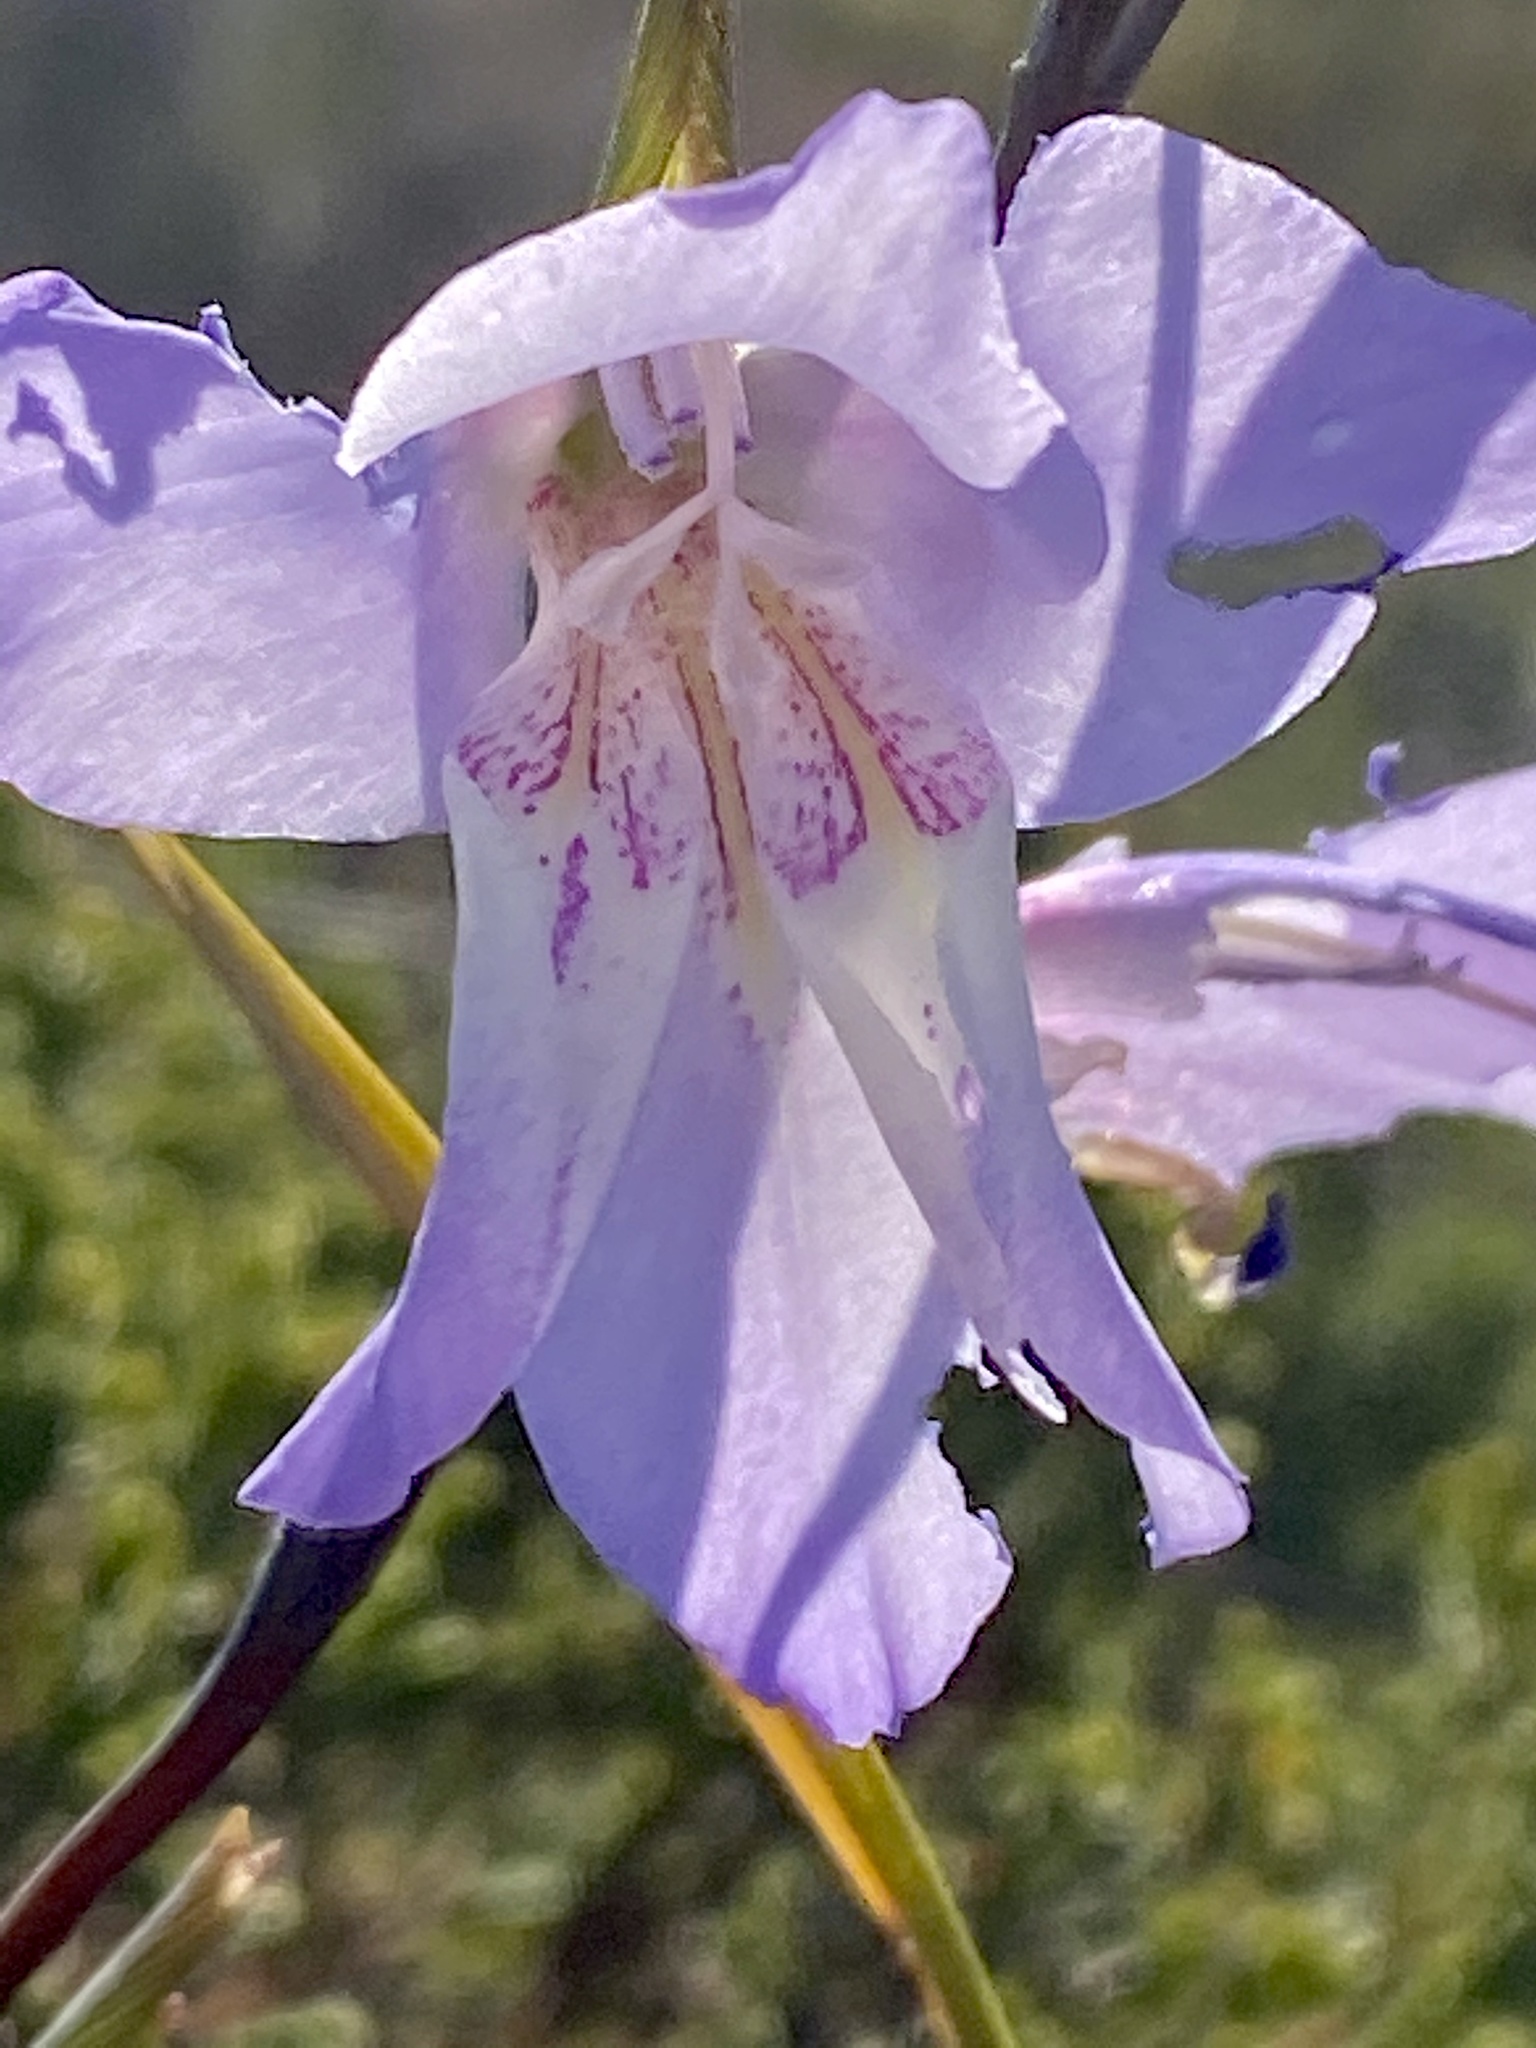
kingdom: Plantae
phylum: Tracheophyta
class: Liliopsida
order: Asparagales
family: Iridaceae
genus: Gladiolus
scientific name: Gladiolus carinatus
